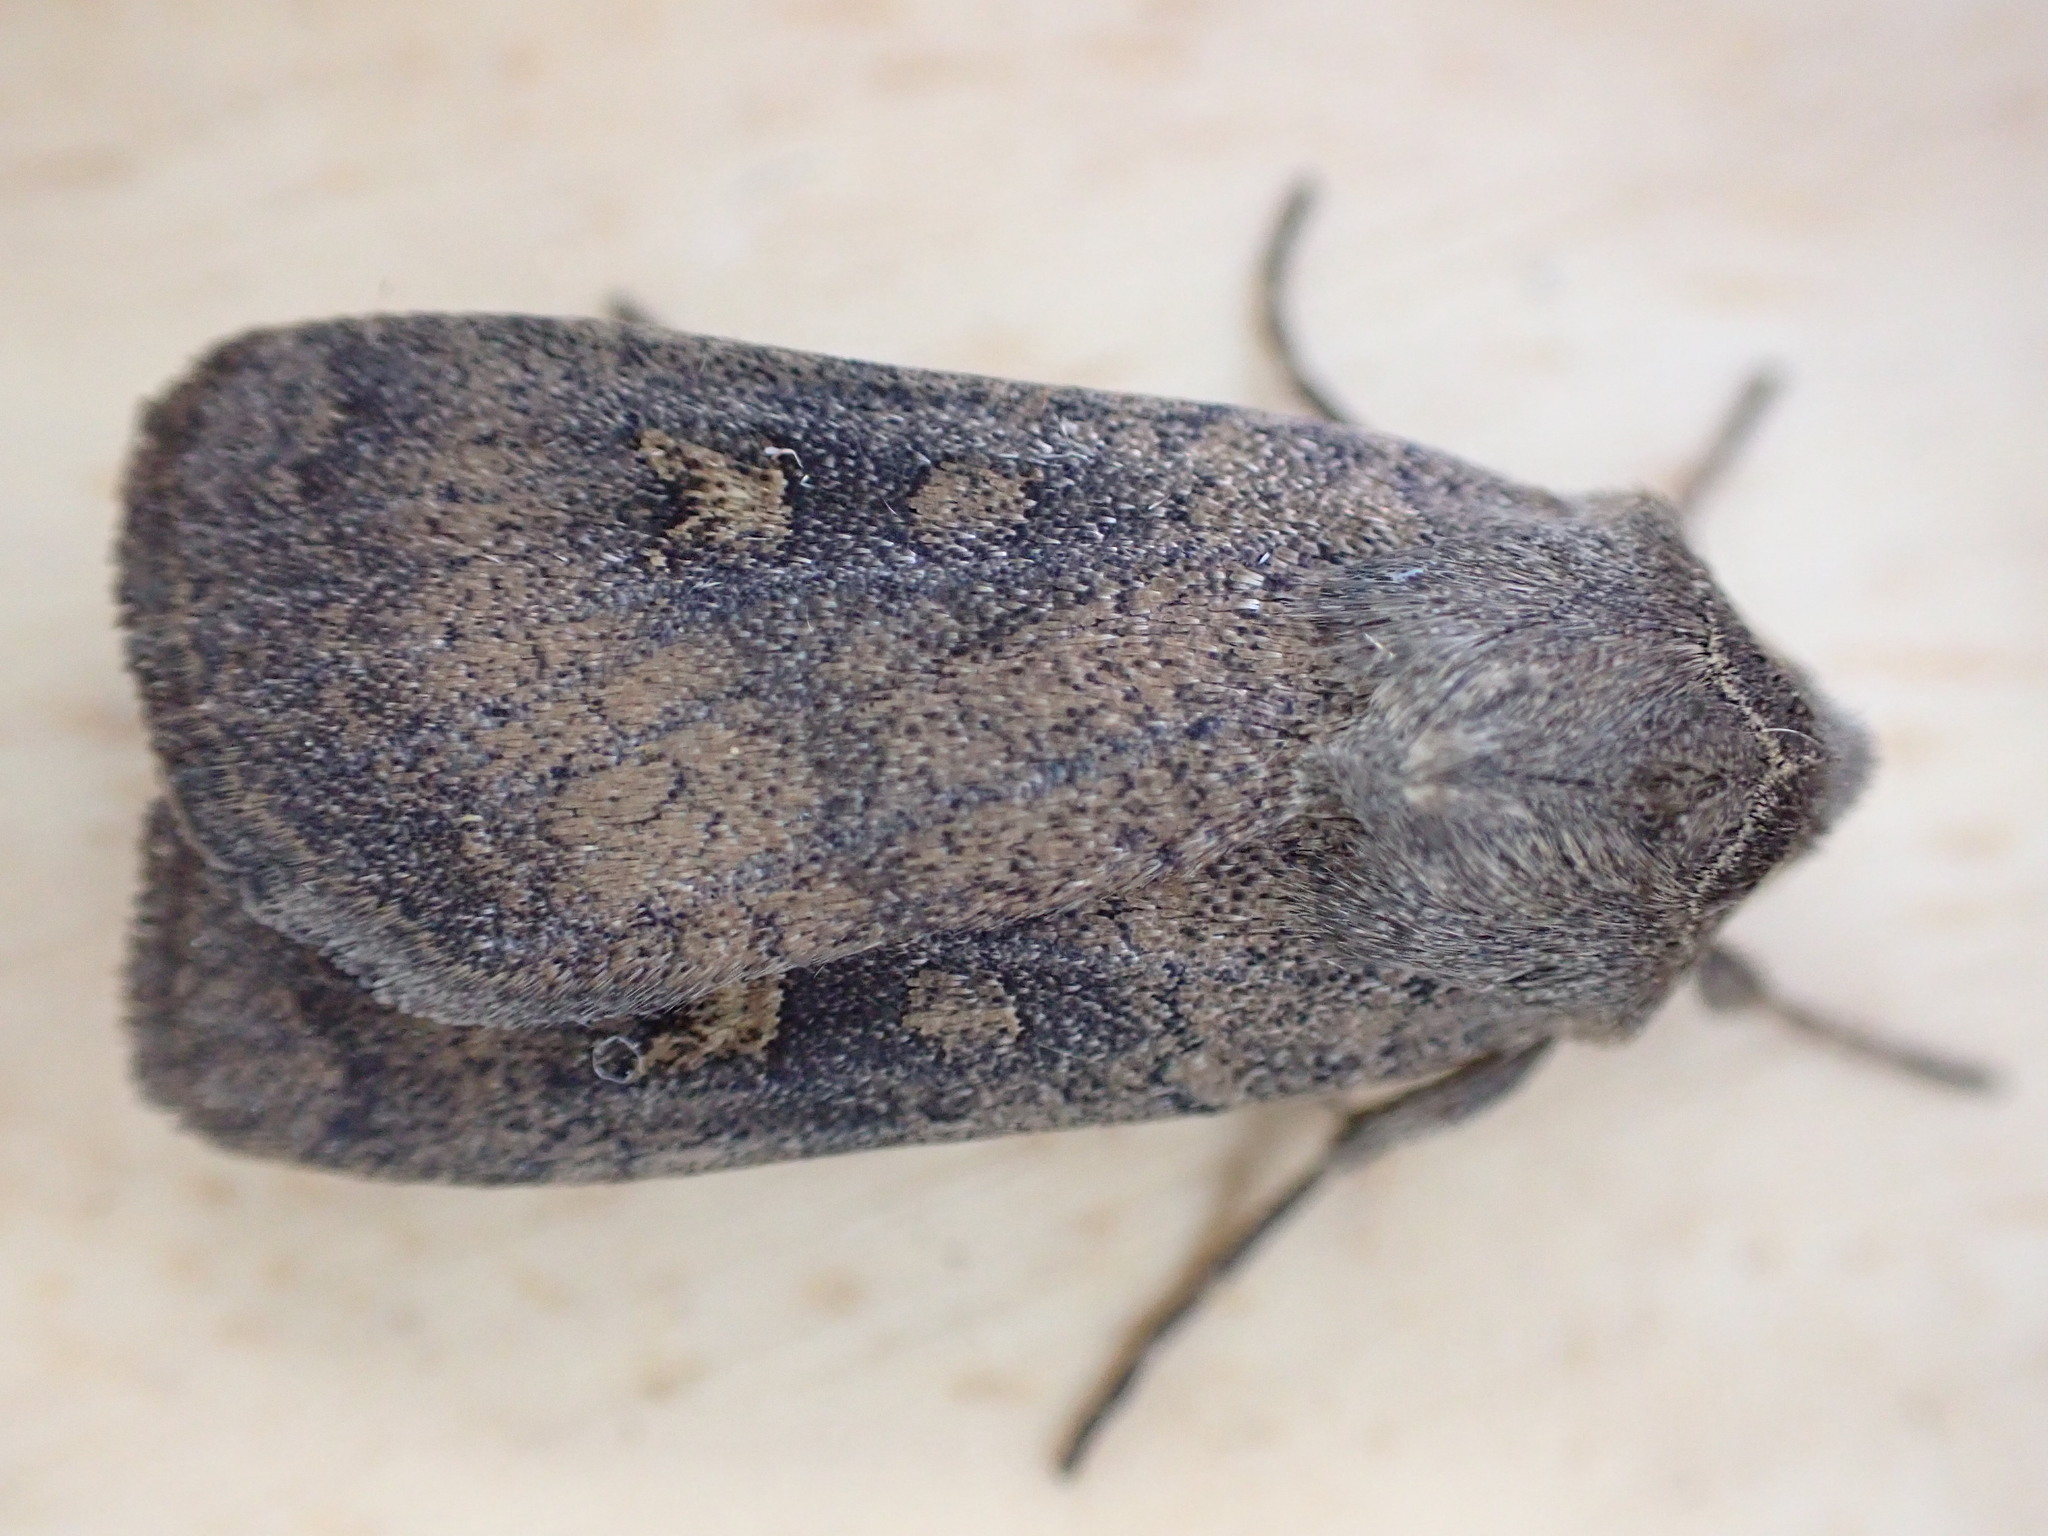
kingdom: Animalia
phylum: Arthropoda
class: Insecta
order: Lepidoptera
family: Noctuidae
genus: Xestia
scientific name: Xestia xanthographa
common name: Square-spot rustic
